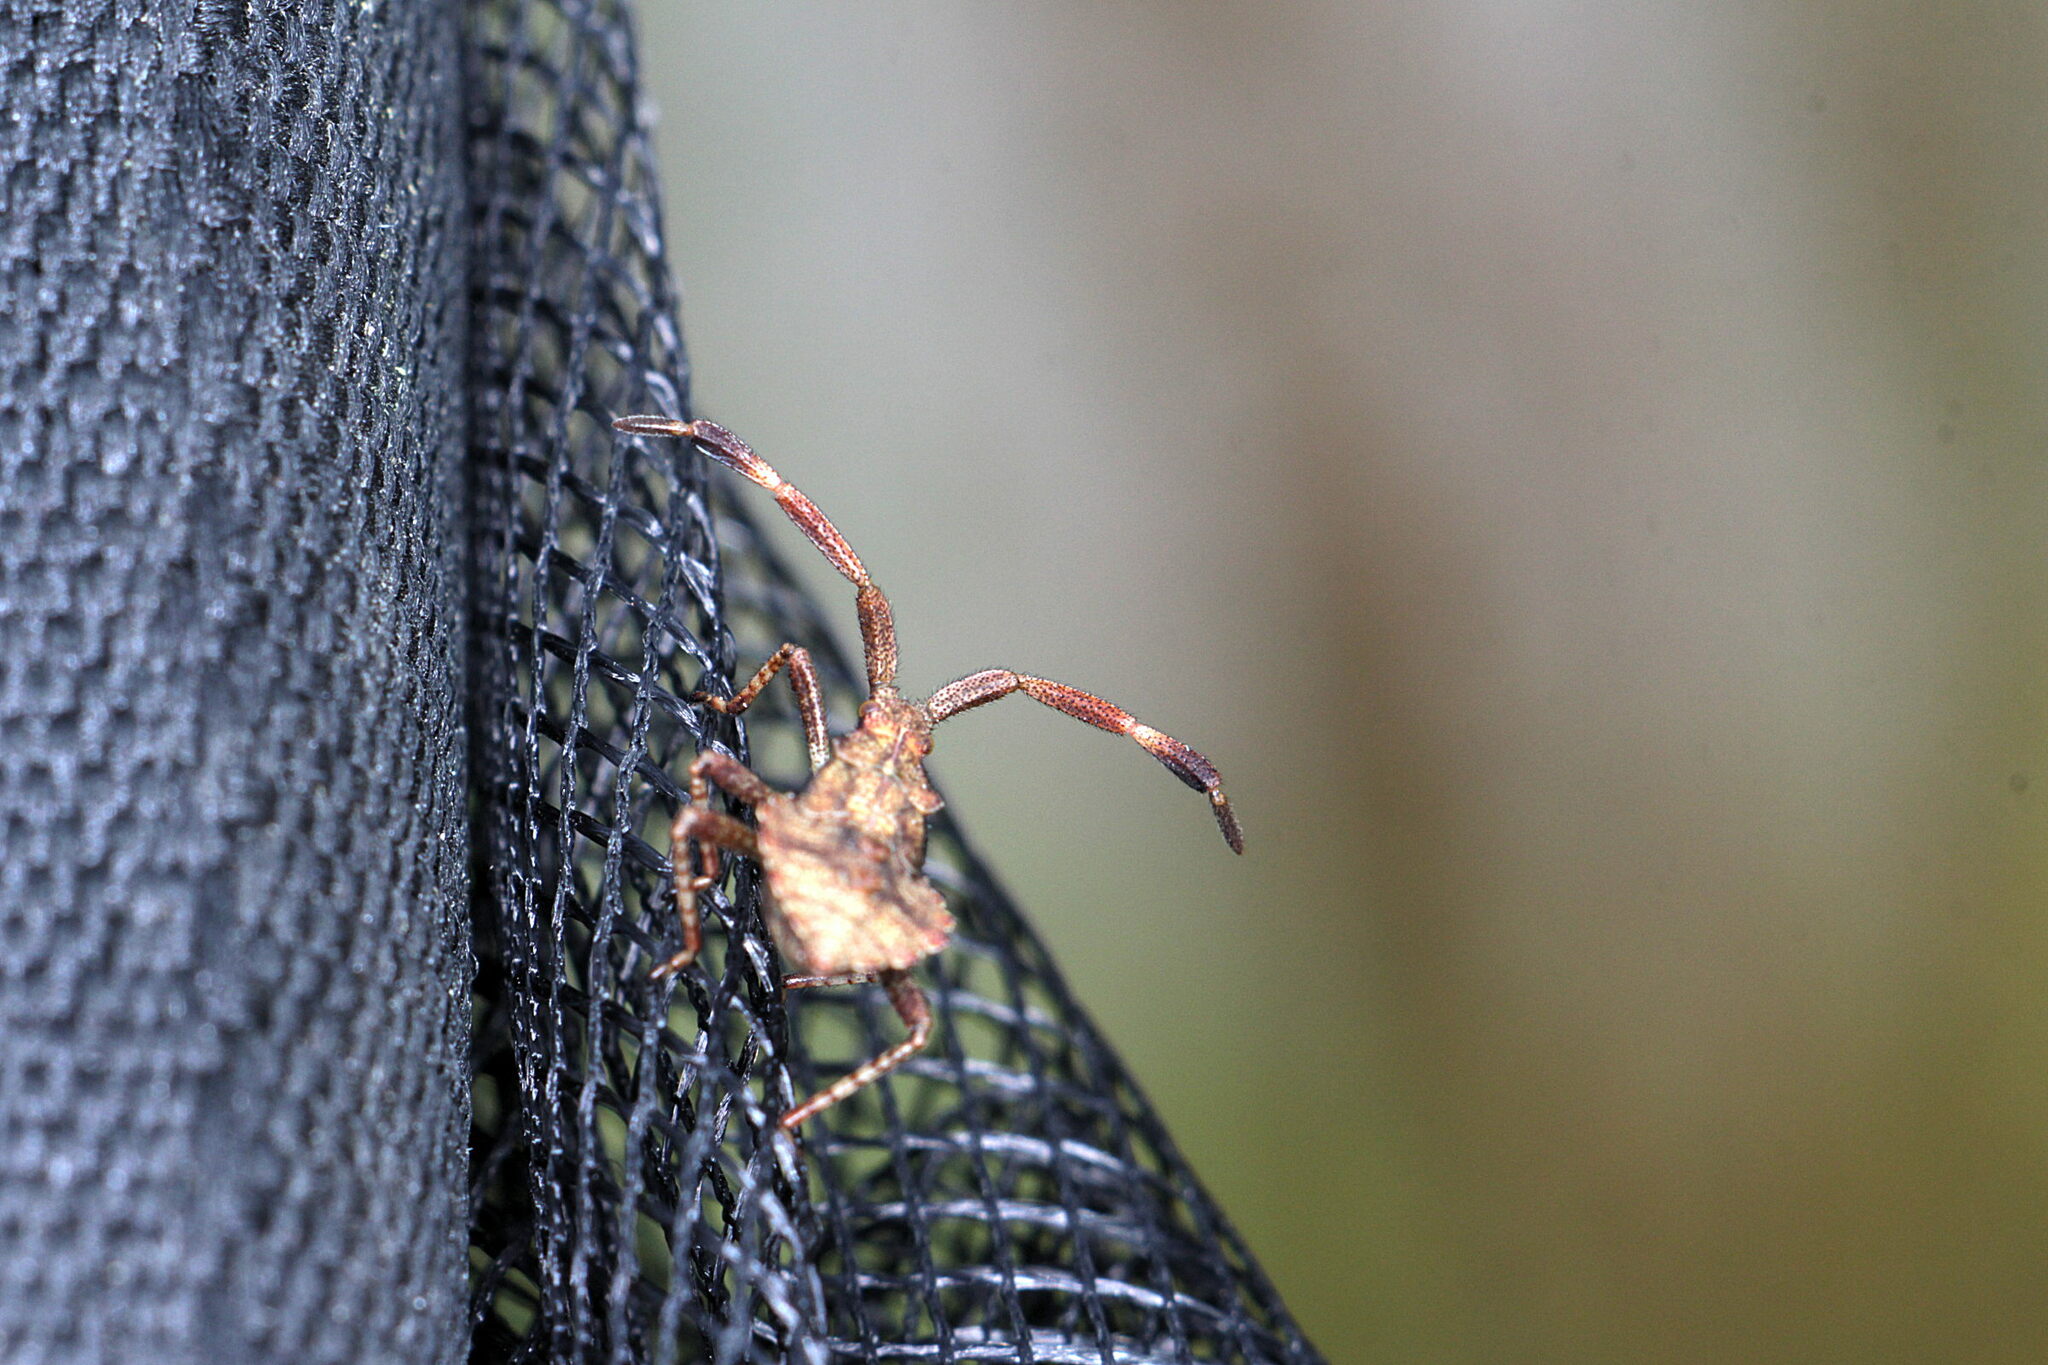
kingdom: Animalia
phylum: Arthropoda
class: Insecta
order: Hemiptera
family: Coreidae
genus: Coreus
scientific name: Coreus marginatus
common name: Dock bug
